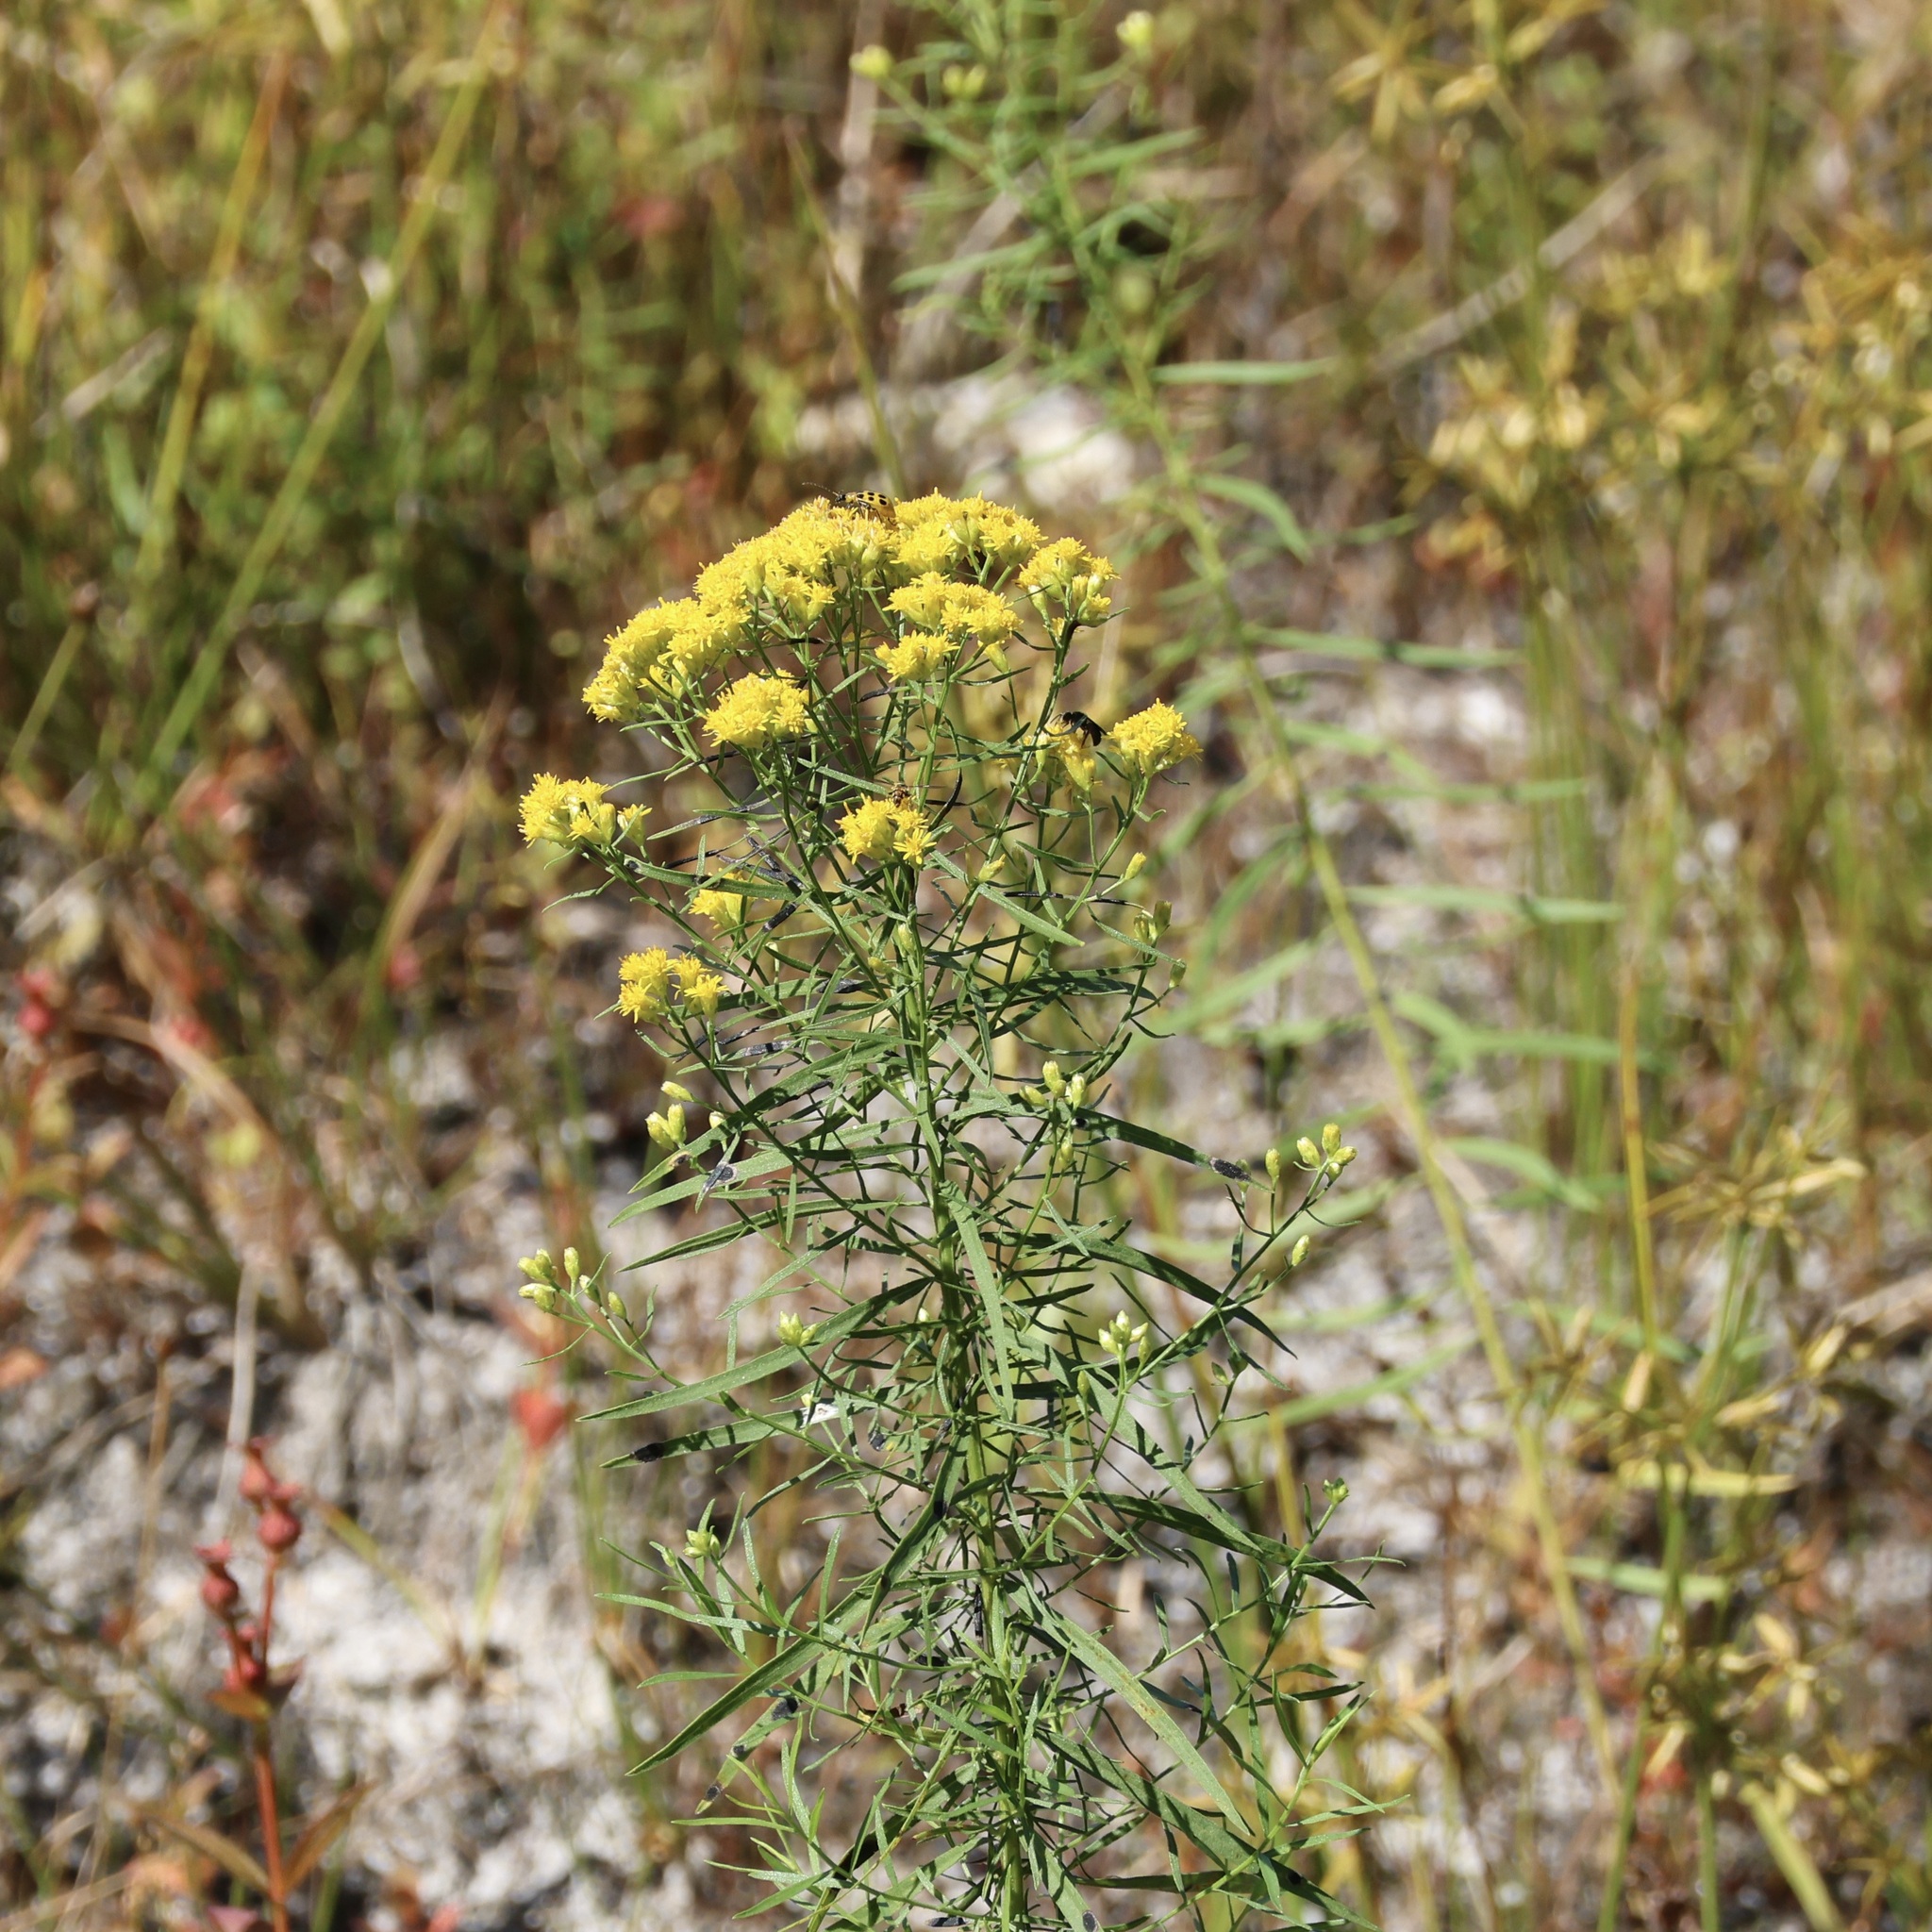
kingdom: Plantae
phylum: Tracheophyta
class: Magnoliopsida
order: Asterales
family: Asteraceae
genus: Euthamia
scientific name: Euthamia caroliniana
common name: Coastal plain goldentop
